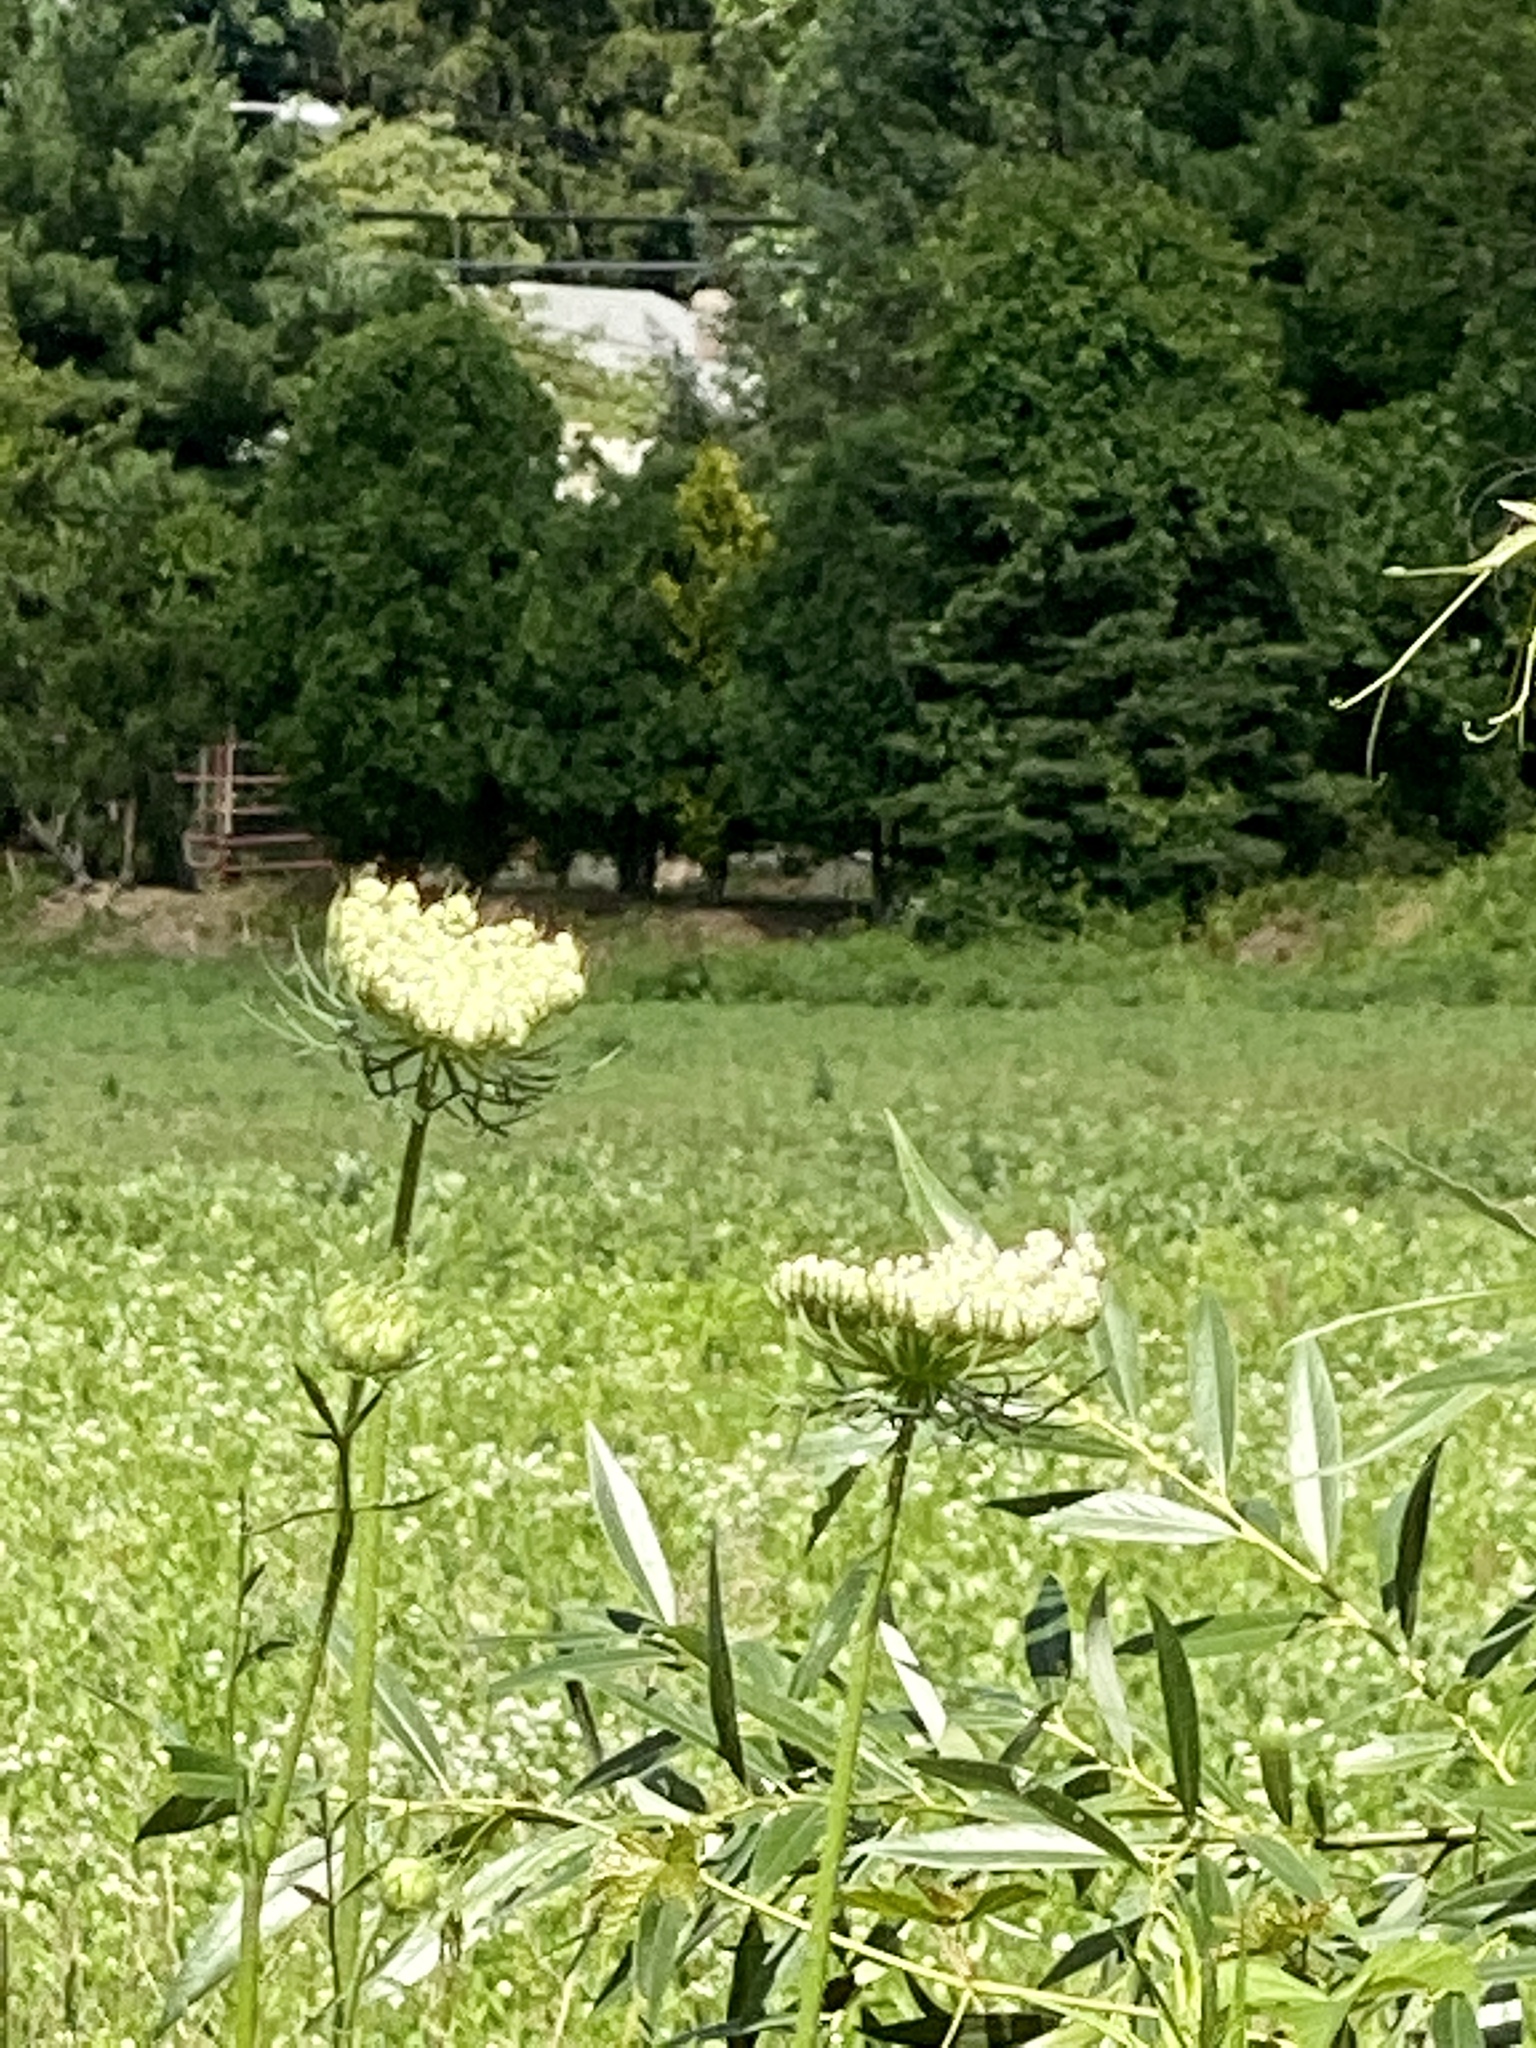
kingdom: Plantae
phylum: Tracheophyta
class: Magnoliopsida
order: Apiales
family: Apiaceae
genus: Daucus
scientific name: Daucus carota
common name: Wild carrot
